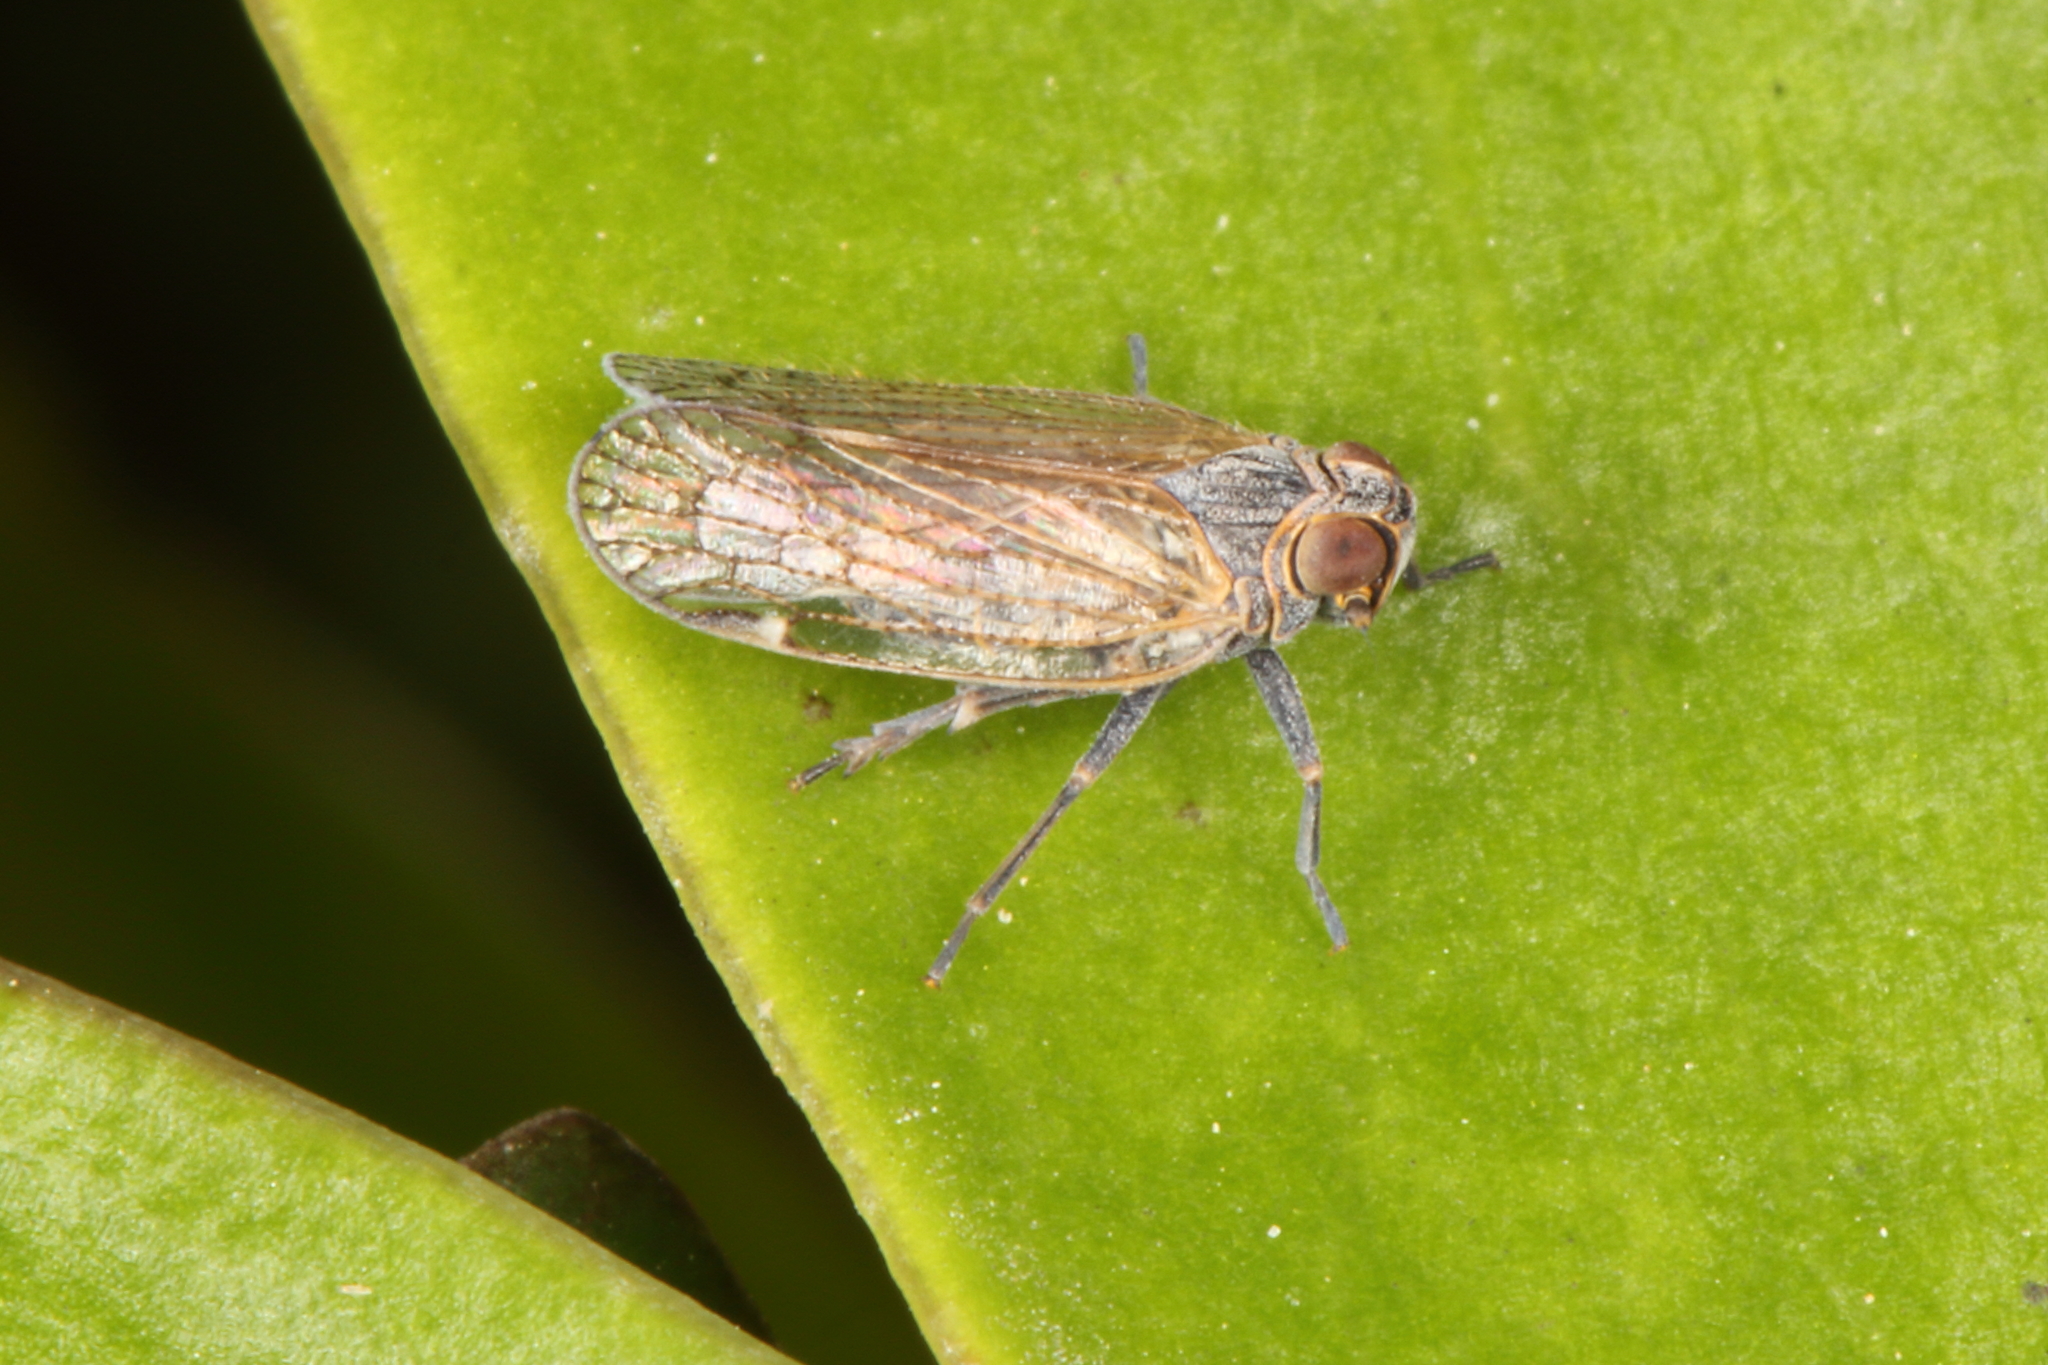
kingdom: Animalia
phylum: Arthropoda
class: Insecta
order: Hemiptera
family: Cixiidae
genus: Zeoliarus
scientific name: Zeoliarus oppositus
